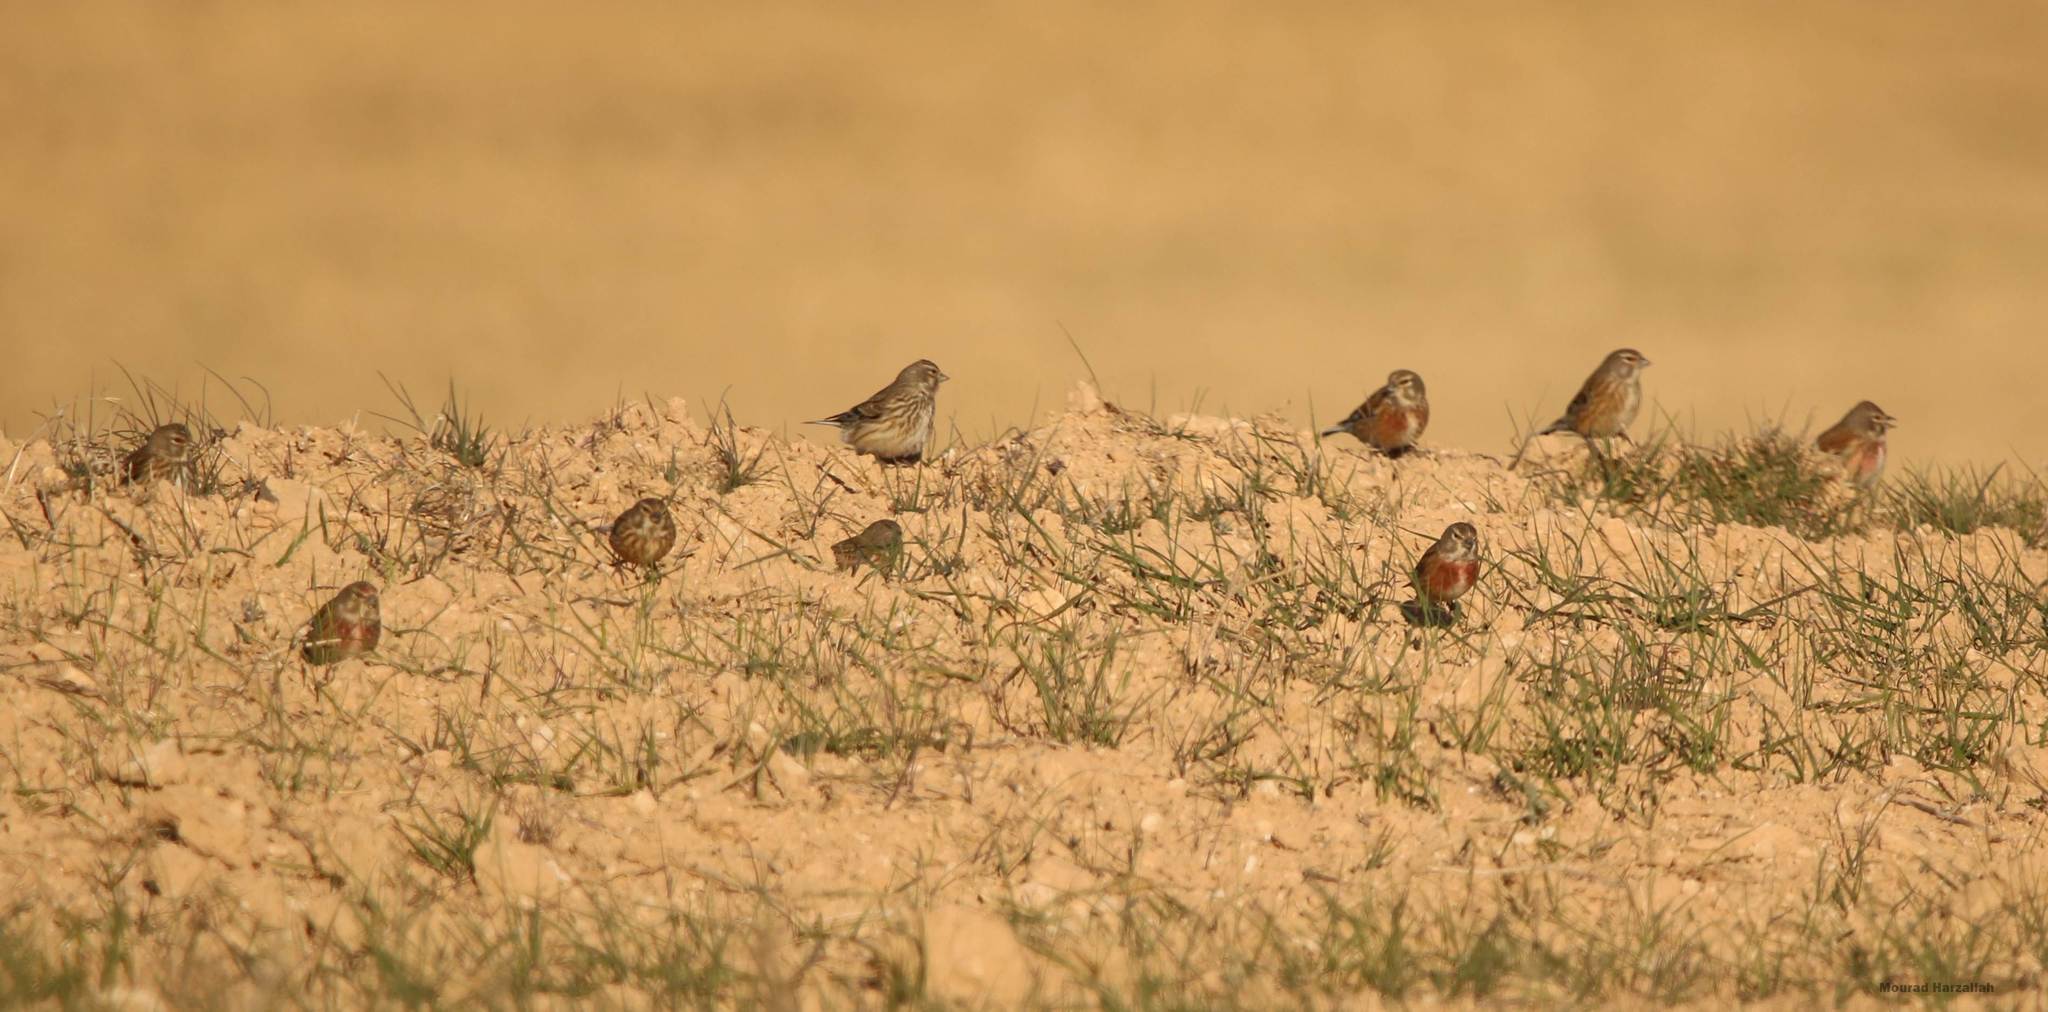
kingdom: Animalia
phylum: Chordata
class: Aves
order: Passeriformes
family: Fringillidae
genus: Linaria
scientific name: Linaria cannabina
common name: Common linnet
